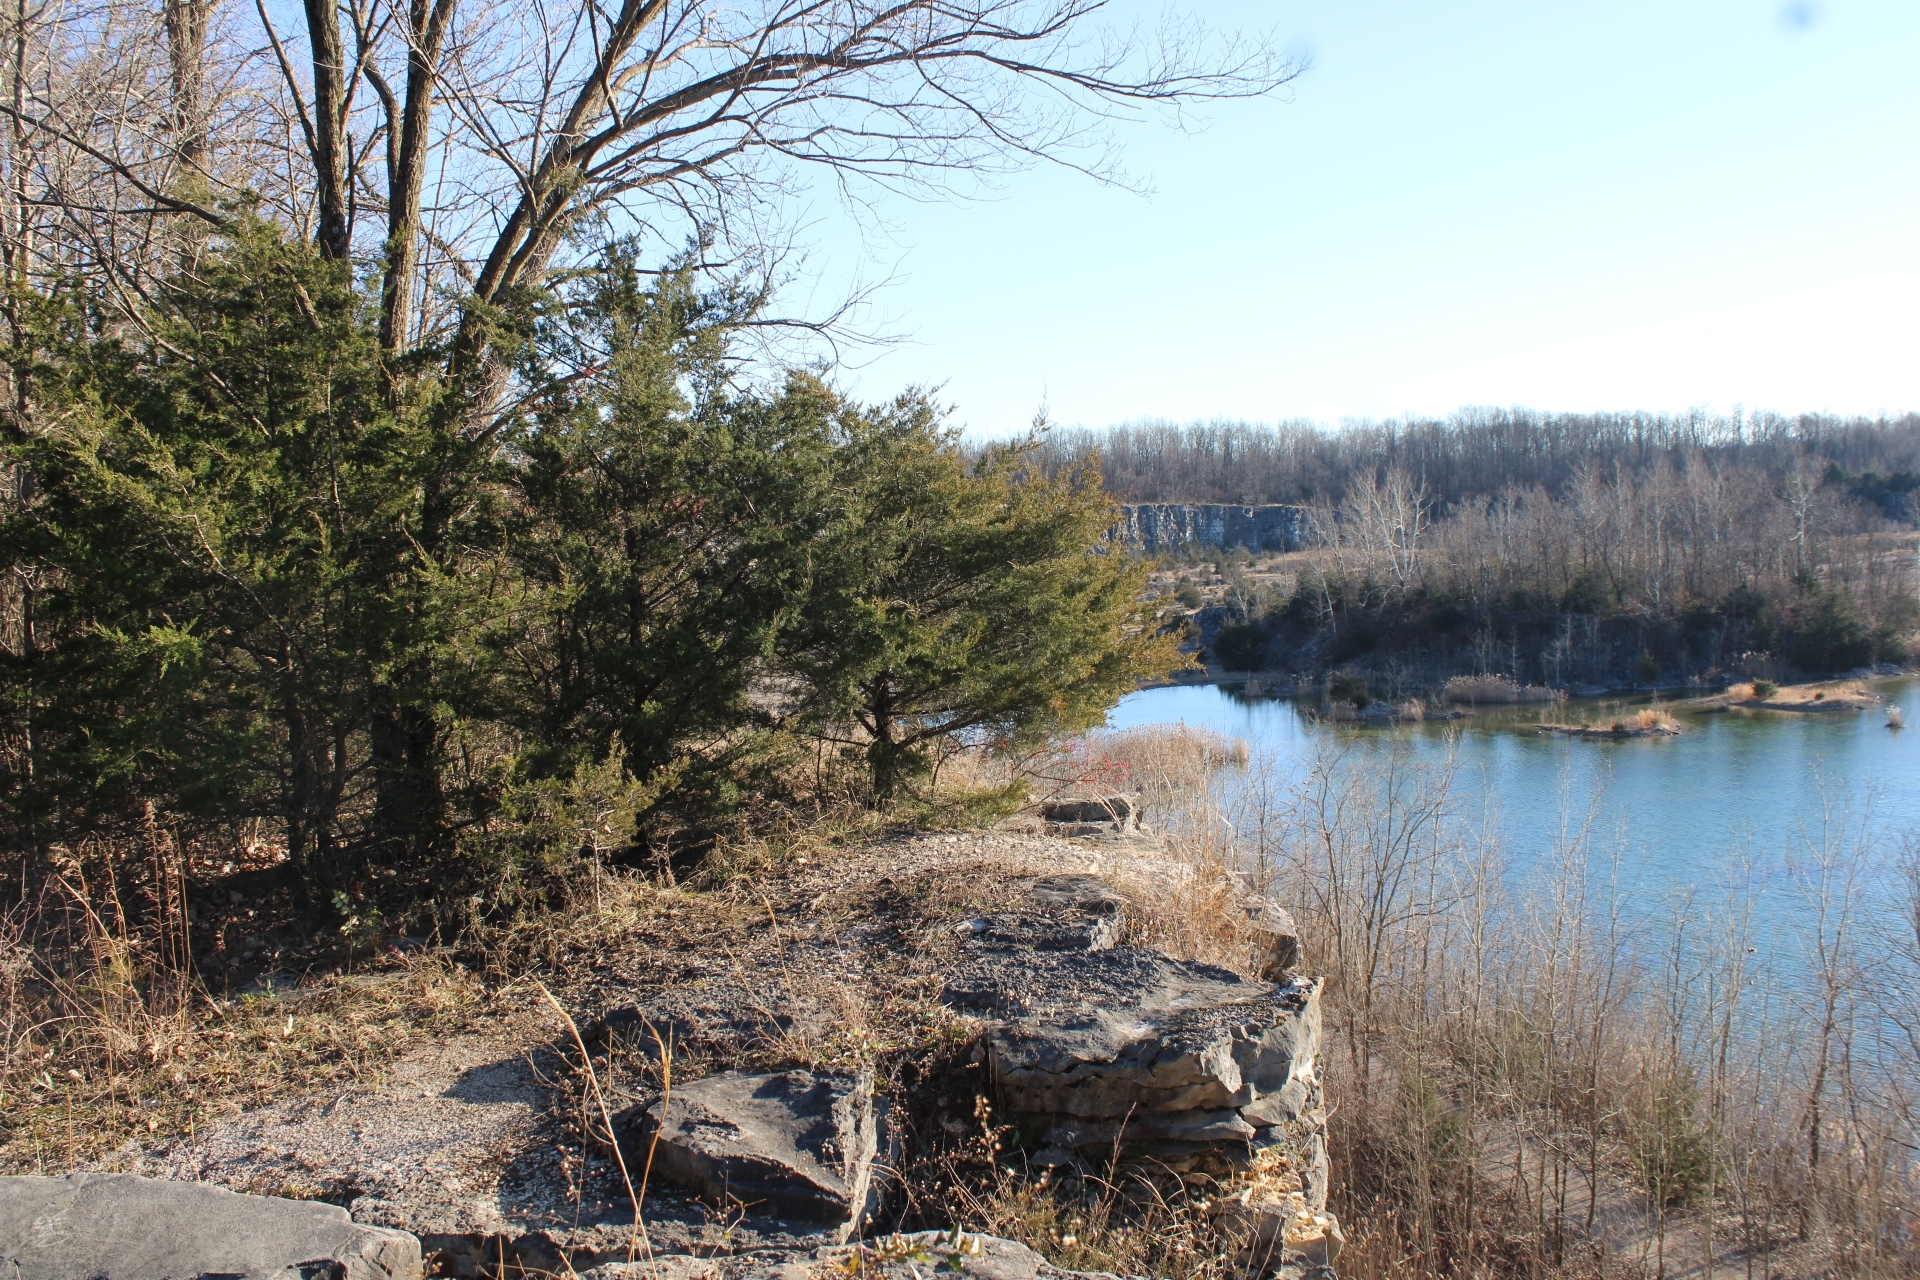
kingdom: Plantae
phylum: Tracheophyta
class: Pinopsida
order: Pinales
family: Cupressaceae
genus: Juniperus
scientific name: Juniperus virginiana
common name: Red juniper
